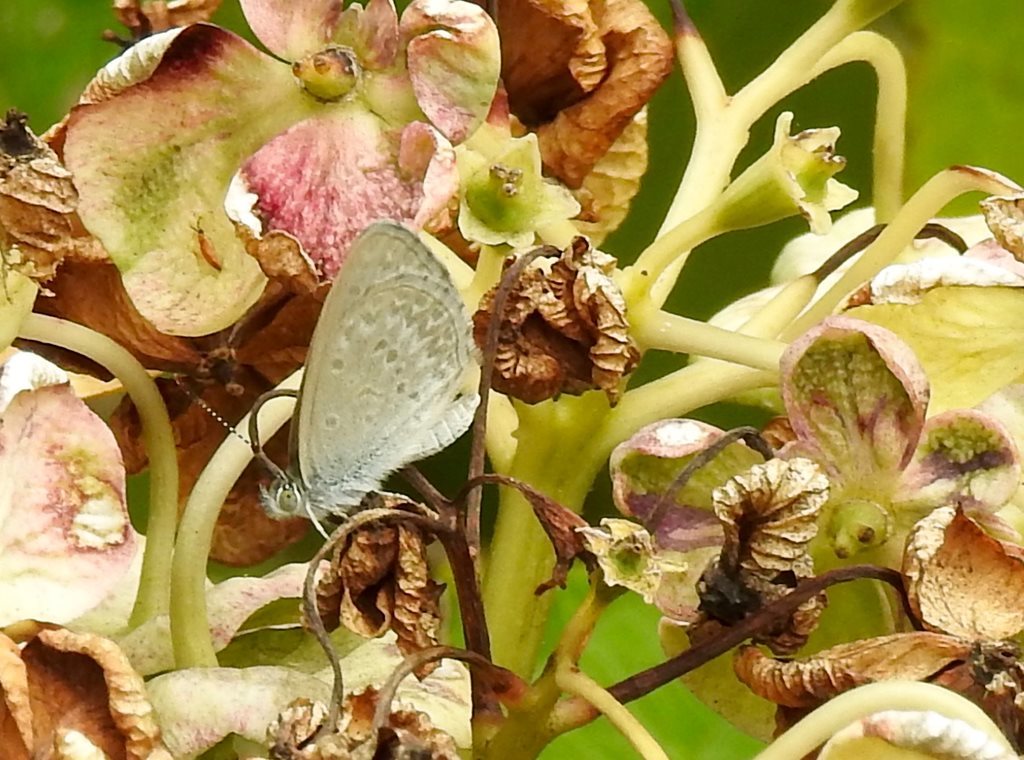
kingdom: Animalia
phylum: Arthropoda
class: Insecta
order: Lepidoptera
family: Lycaenidae
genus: Zizina
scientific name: Zizina labradus
